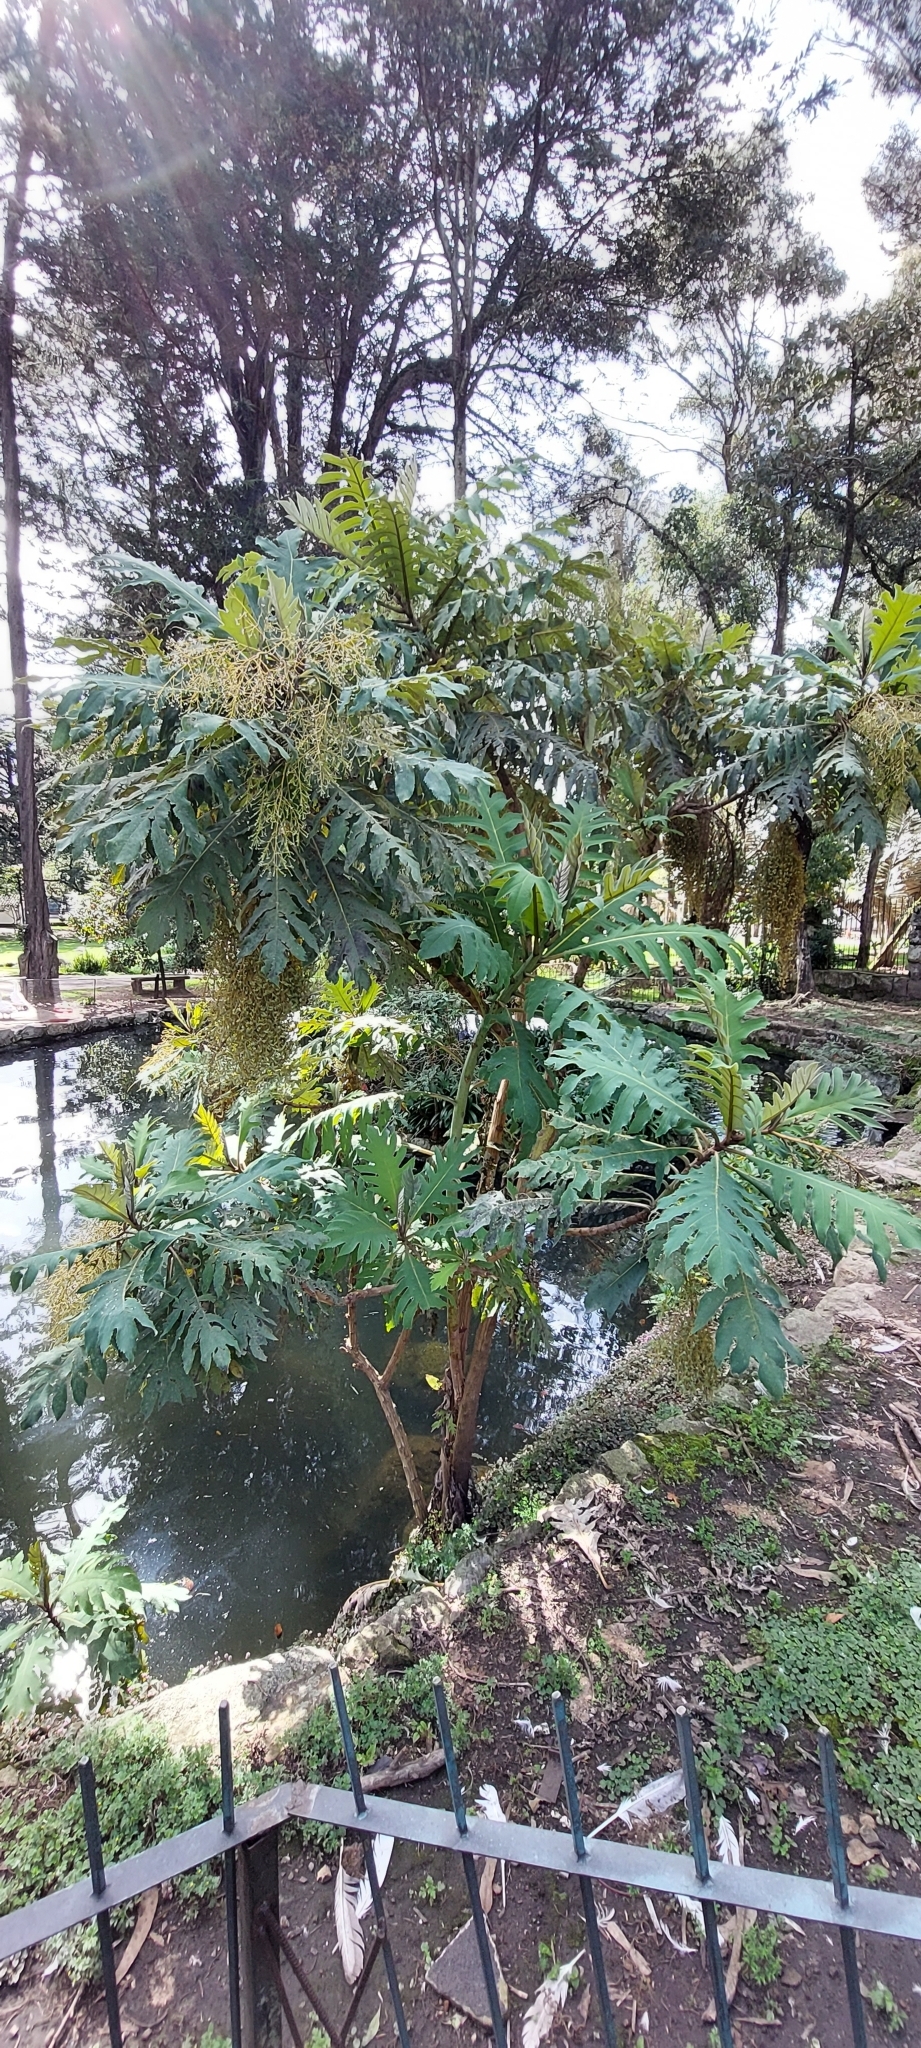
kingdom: Plantae
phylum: Tracheophyta
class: Magnoliopsida
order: Ranunculales
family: Papaveraceae
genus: Bocconia
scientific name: Bocconia frutescens
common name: Tree poppy
